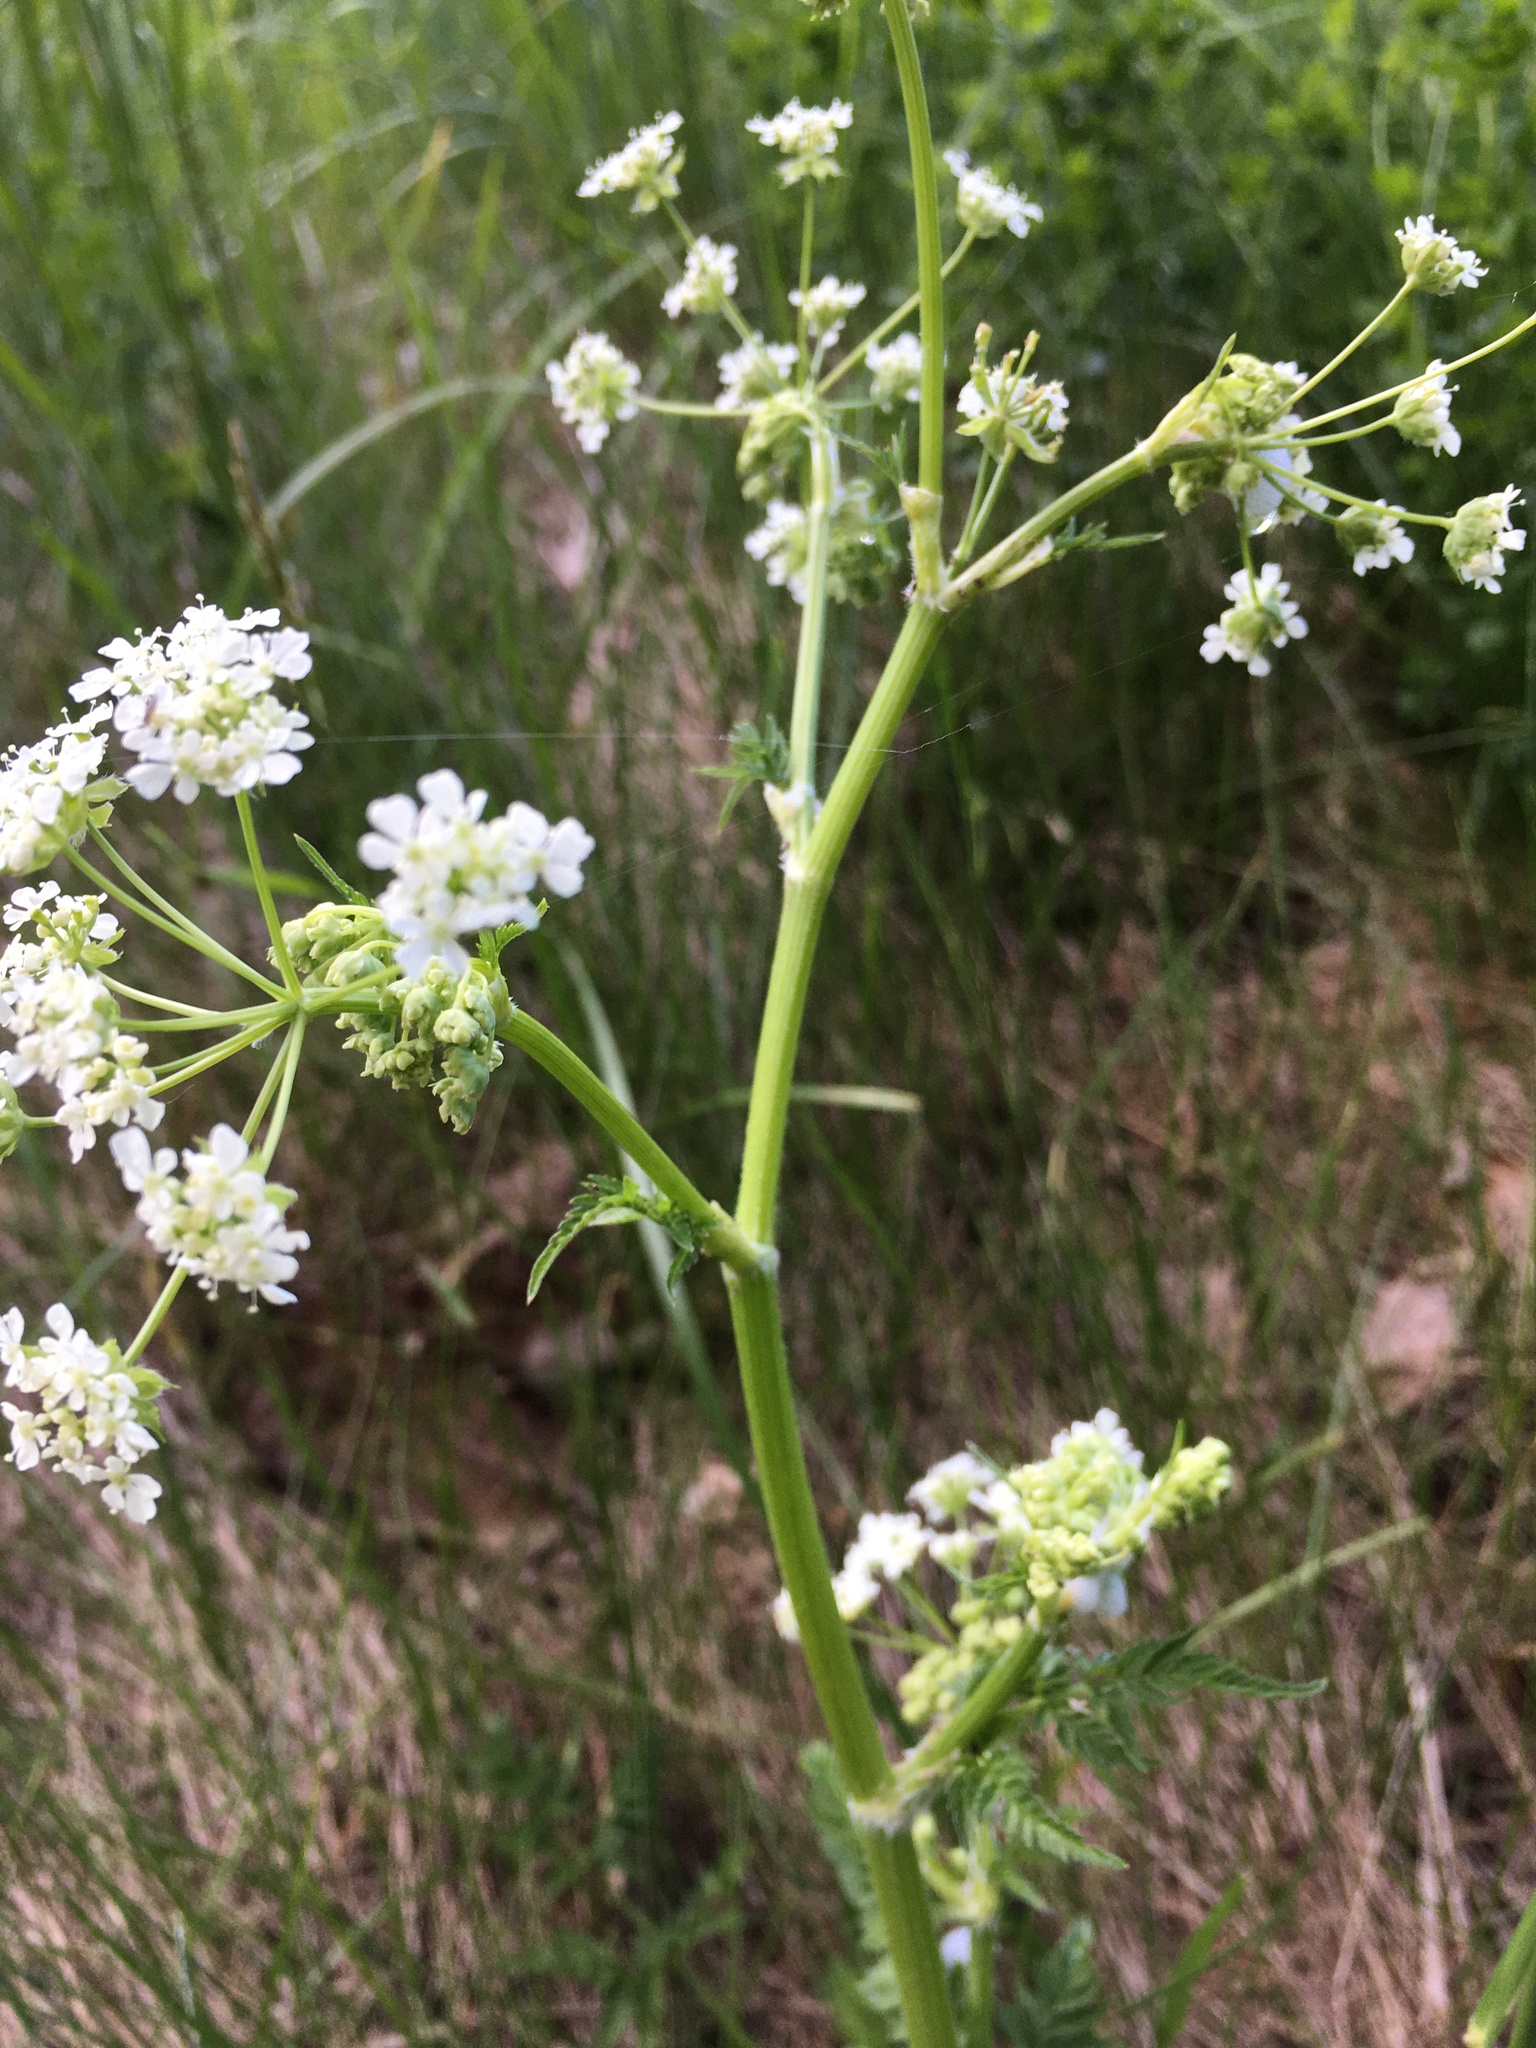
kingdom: Plantae
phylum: Tracheophyta
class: Magnoliopsida
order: Apiales
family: Apiaceae
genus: Anthriscus
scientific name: Anthriscus sylvestris
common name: Cow parsley
